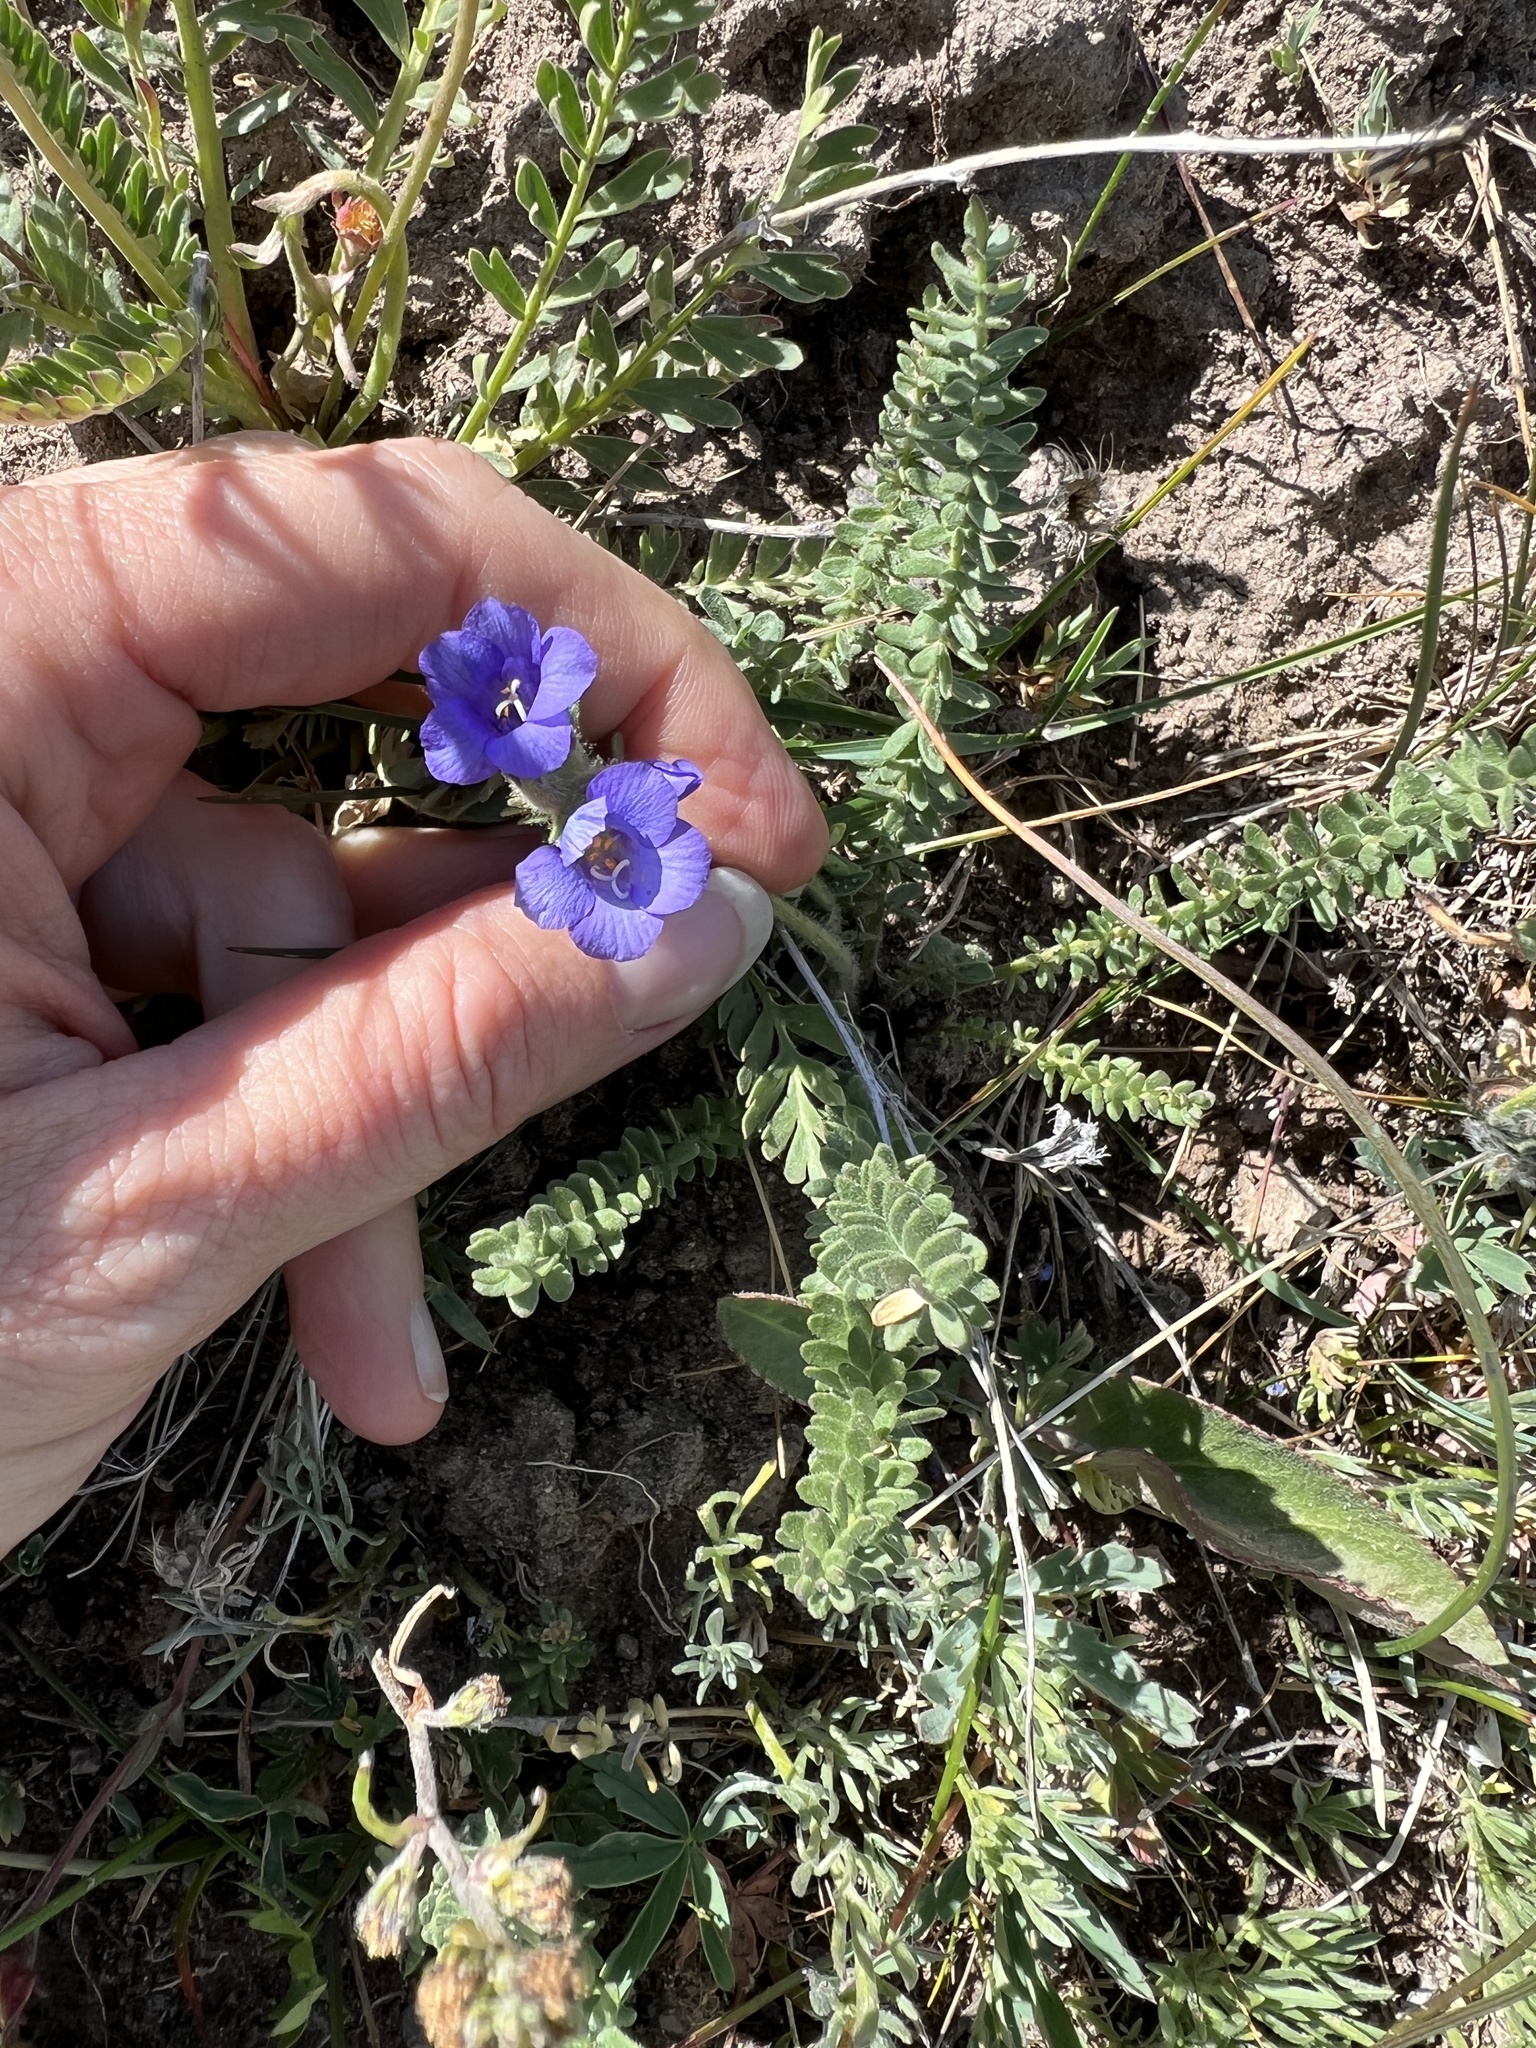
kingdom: Plantae
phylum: Tracheophyta
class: Magnoliopsida
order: Ericales
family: Polemoniaceae
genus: Polemonium
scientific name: Polemonium viscosum
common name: Skunk jacob's-ladder
